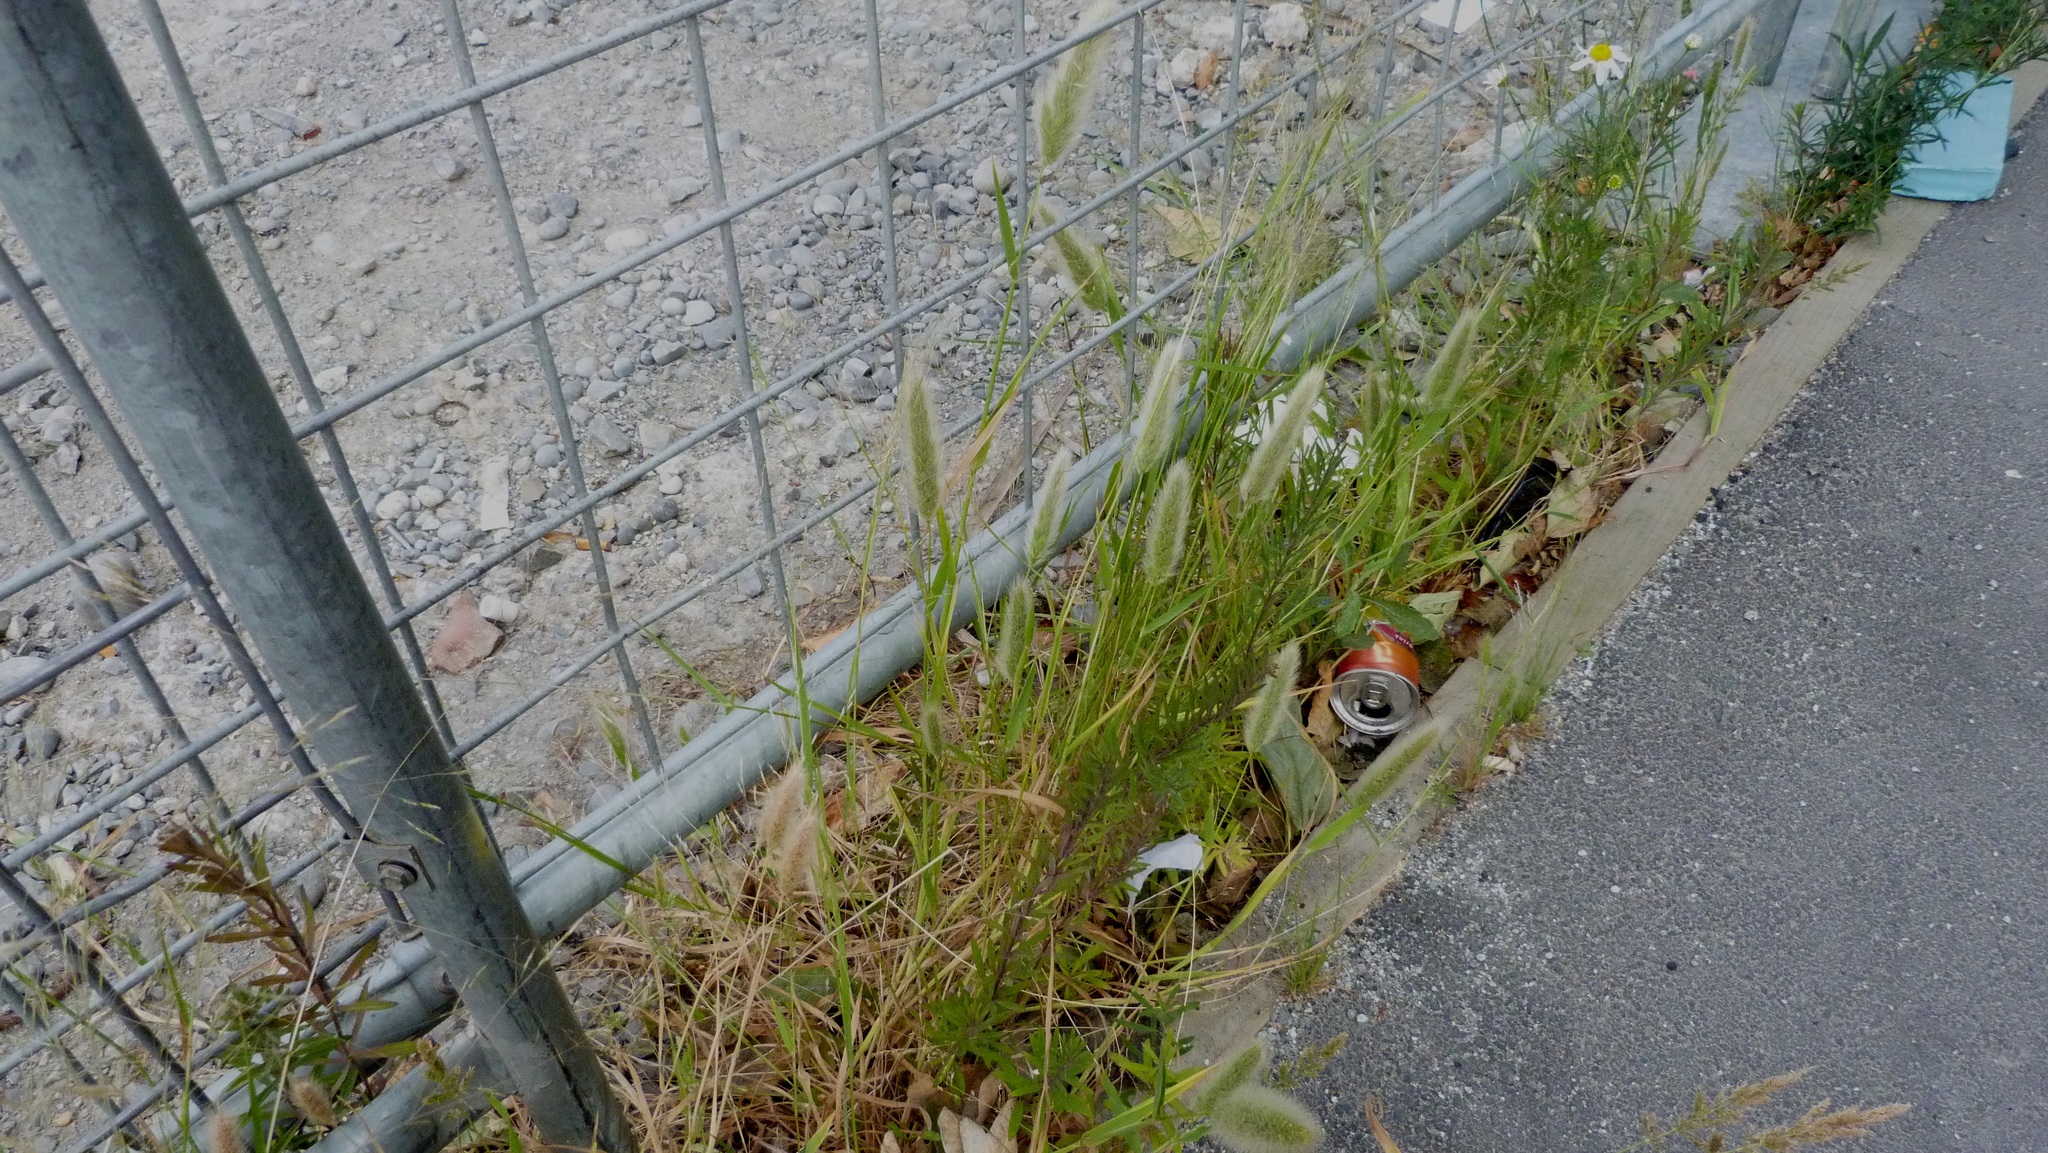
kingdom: Plantae
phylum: Tracheophyta
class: Liliopsida
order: Poales
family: Poaceae
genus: Polypogon
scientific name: Polypogon monspeliensis
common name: Annual rabbitsfoot grass
